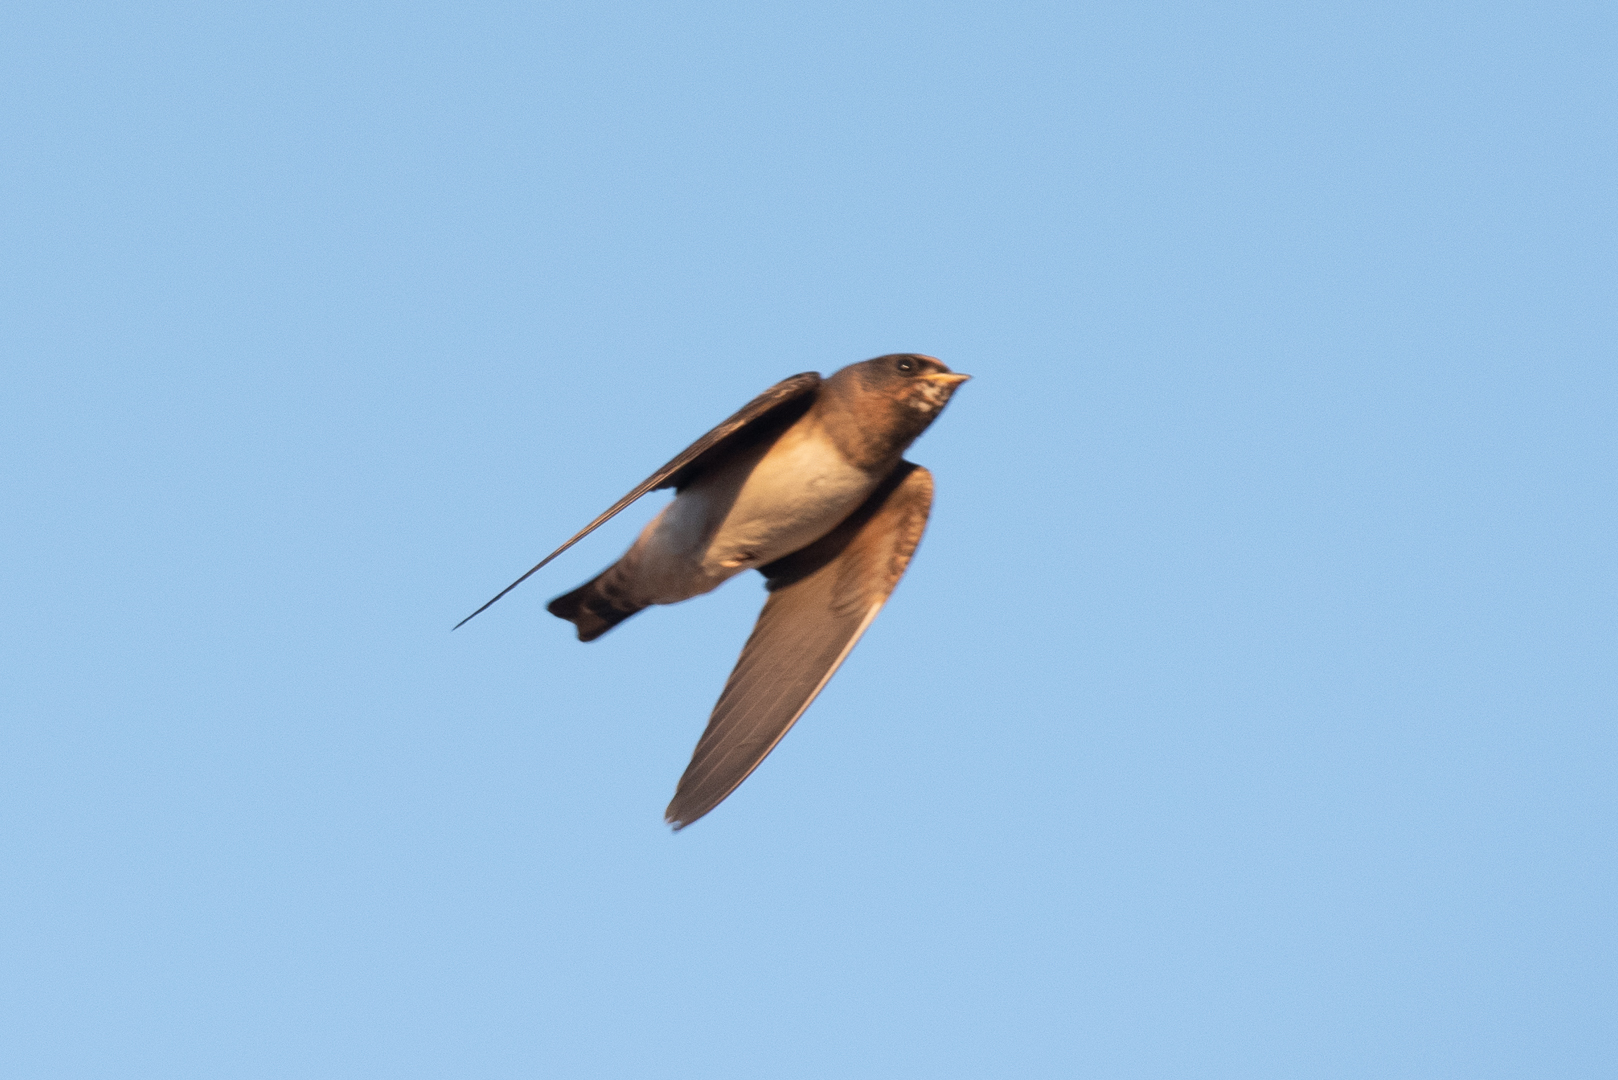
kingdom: Animalia
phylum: Chordata
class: Aves
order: Passeriformes
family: Hirundinidae
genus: Petrochelidon
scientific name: Petrochelidon pyrrhonota
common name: American cliff swallow
